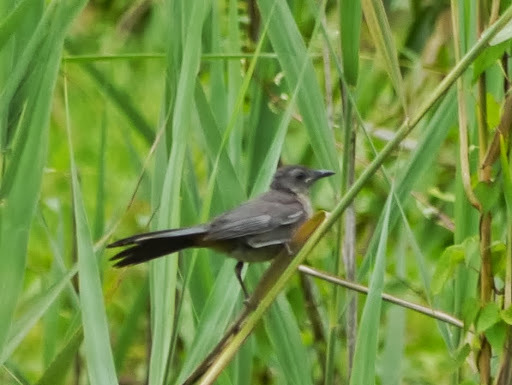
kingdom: Animalia
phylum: Chordata
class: Aves
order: Passeriformes
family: Mimidae
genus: Dumetella
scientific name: Dumetella carolinensis
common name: Gray catbird
